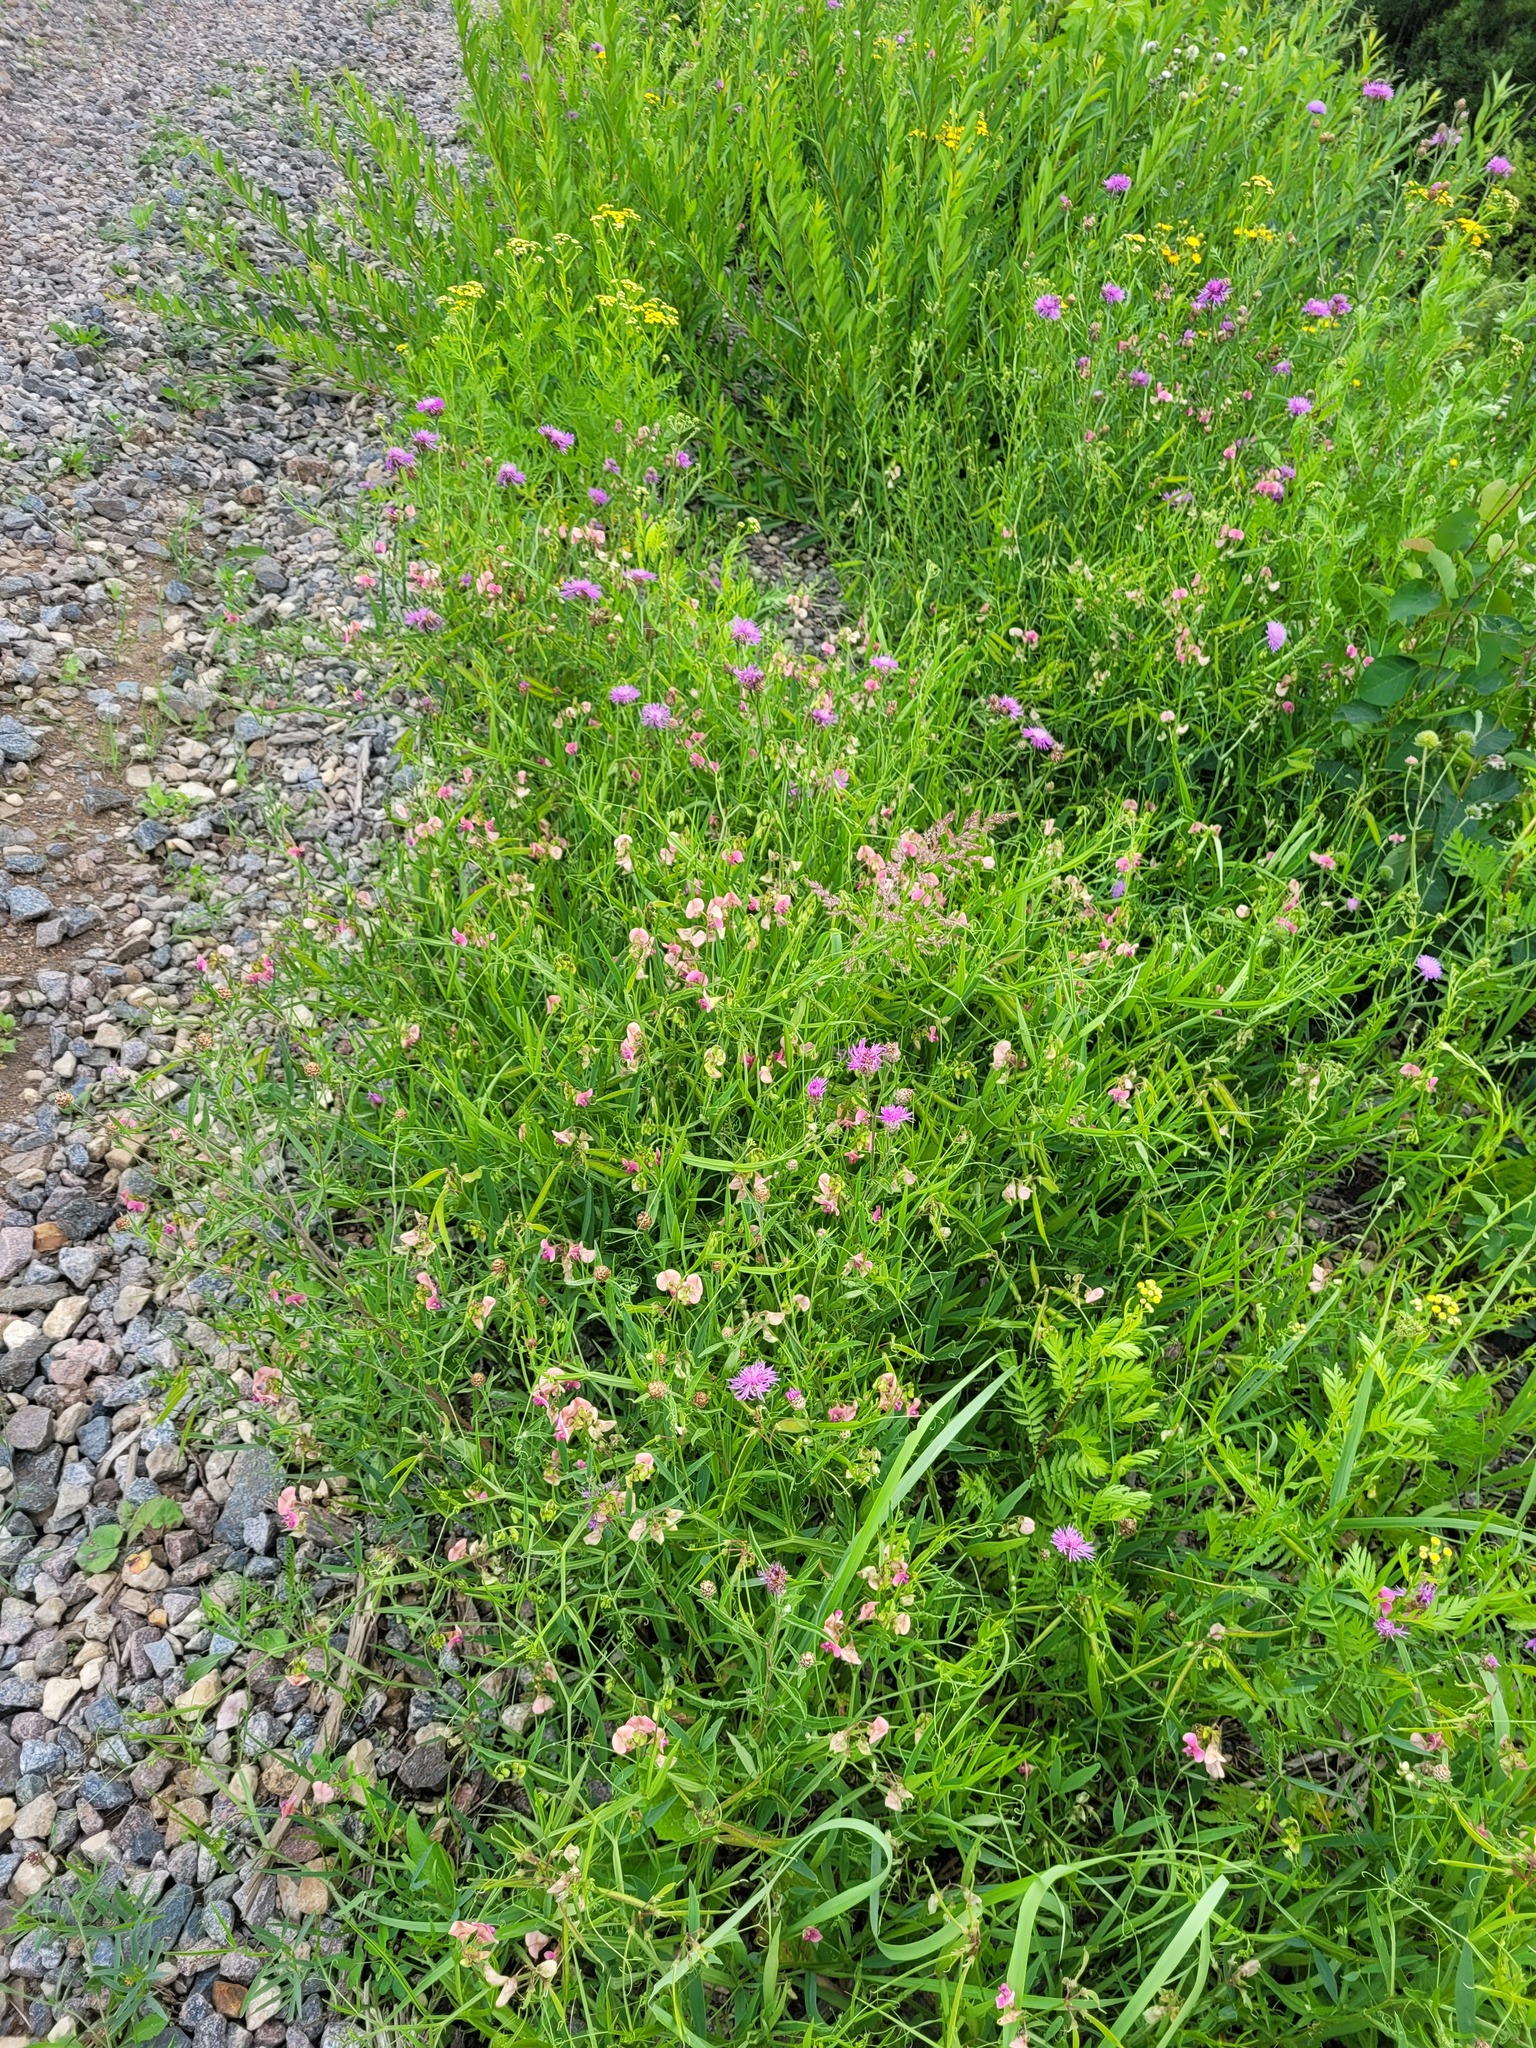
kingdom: Plantae
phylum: Tracheophyta
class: Magnoliopsida
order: Fabales
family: Fabaceae
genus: Lathyrus
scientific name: Lathyrus sylvestris
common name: Flat pea
